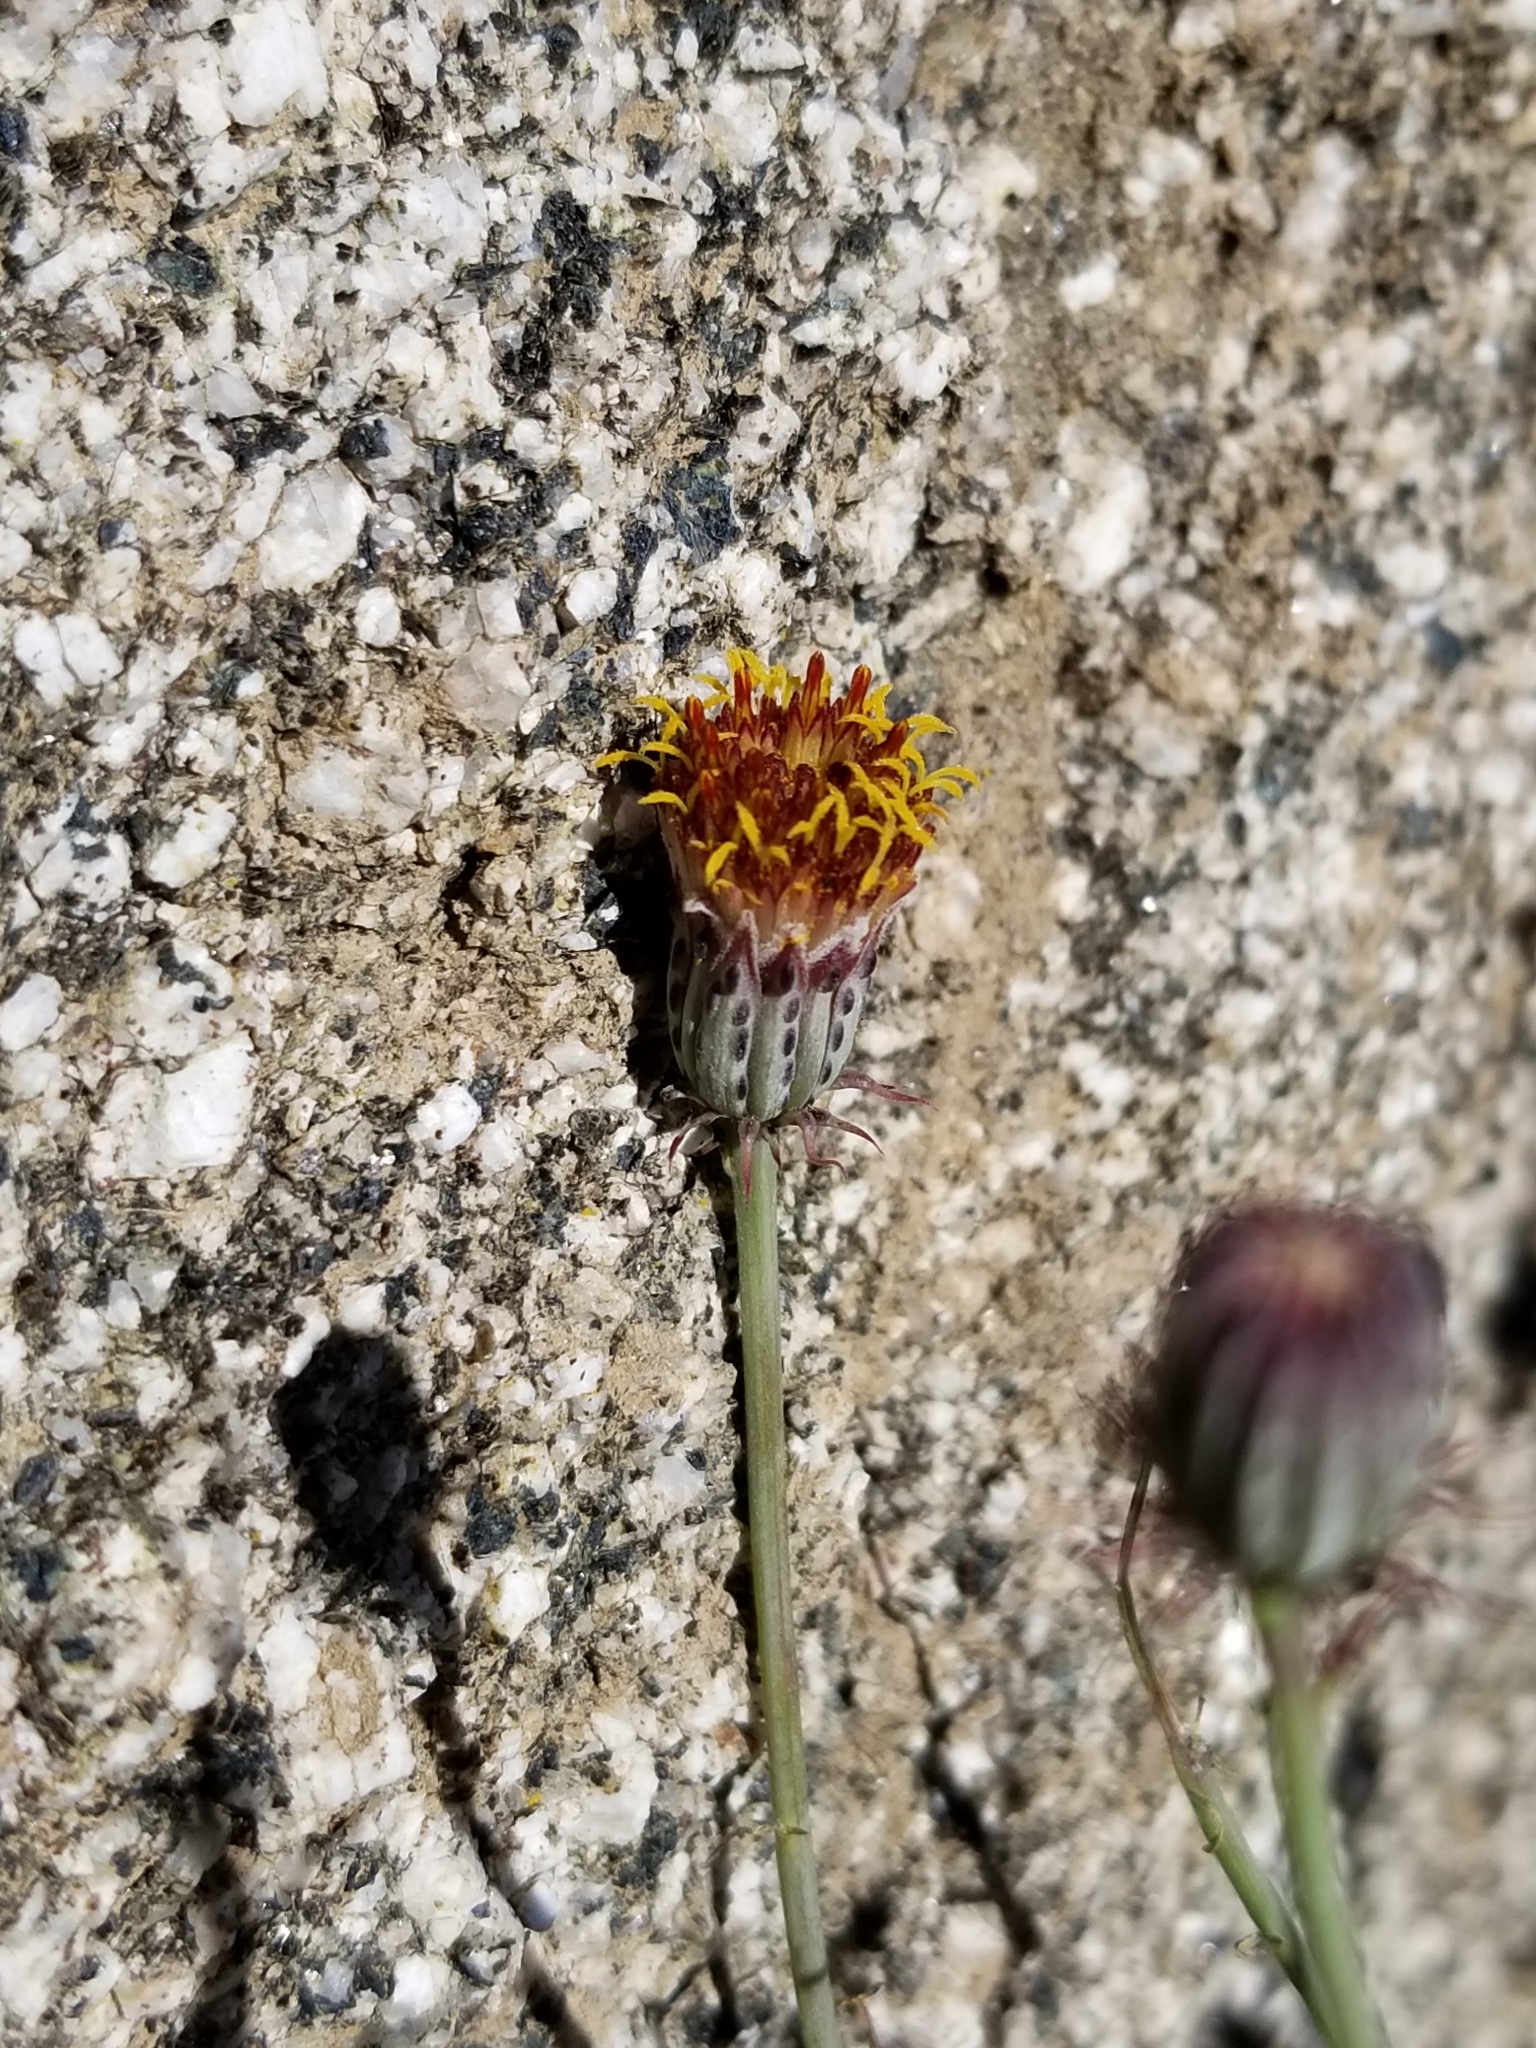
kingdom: Plantae
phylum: Tracheophyta
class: Magnoliopsida
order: Asterales
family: Asteraceae
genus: Adenophyllum
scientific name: Adenophyllum porophylloides
